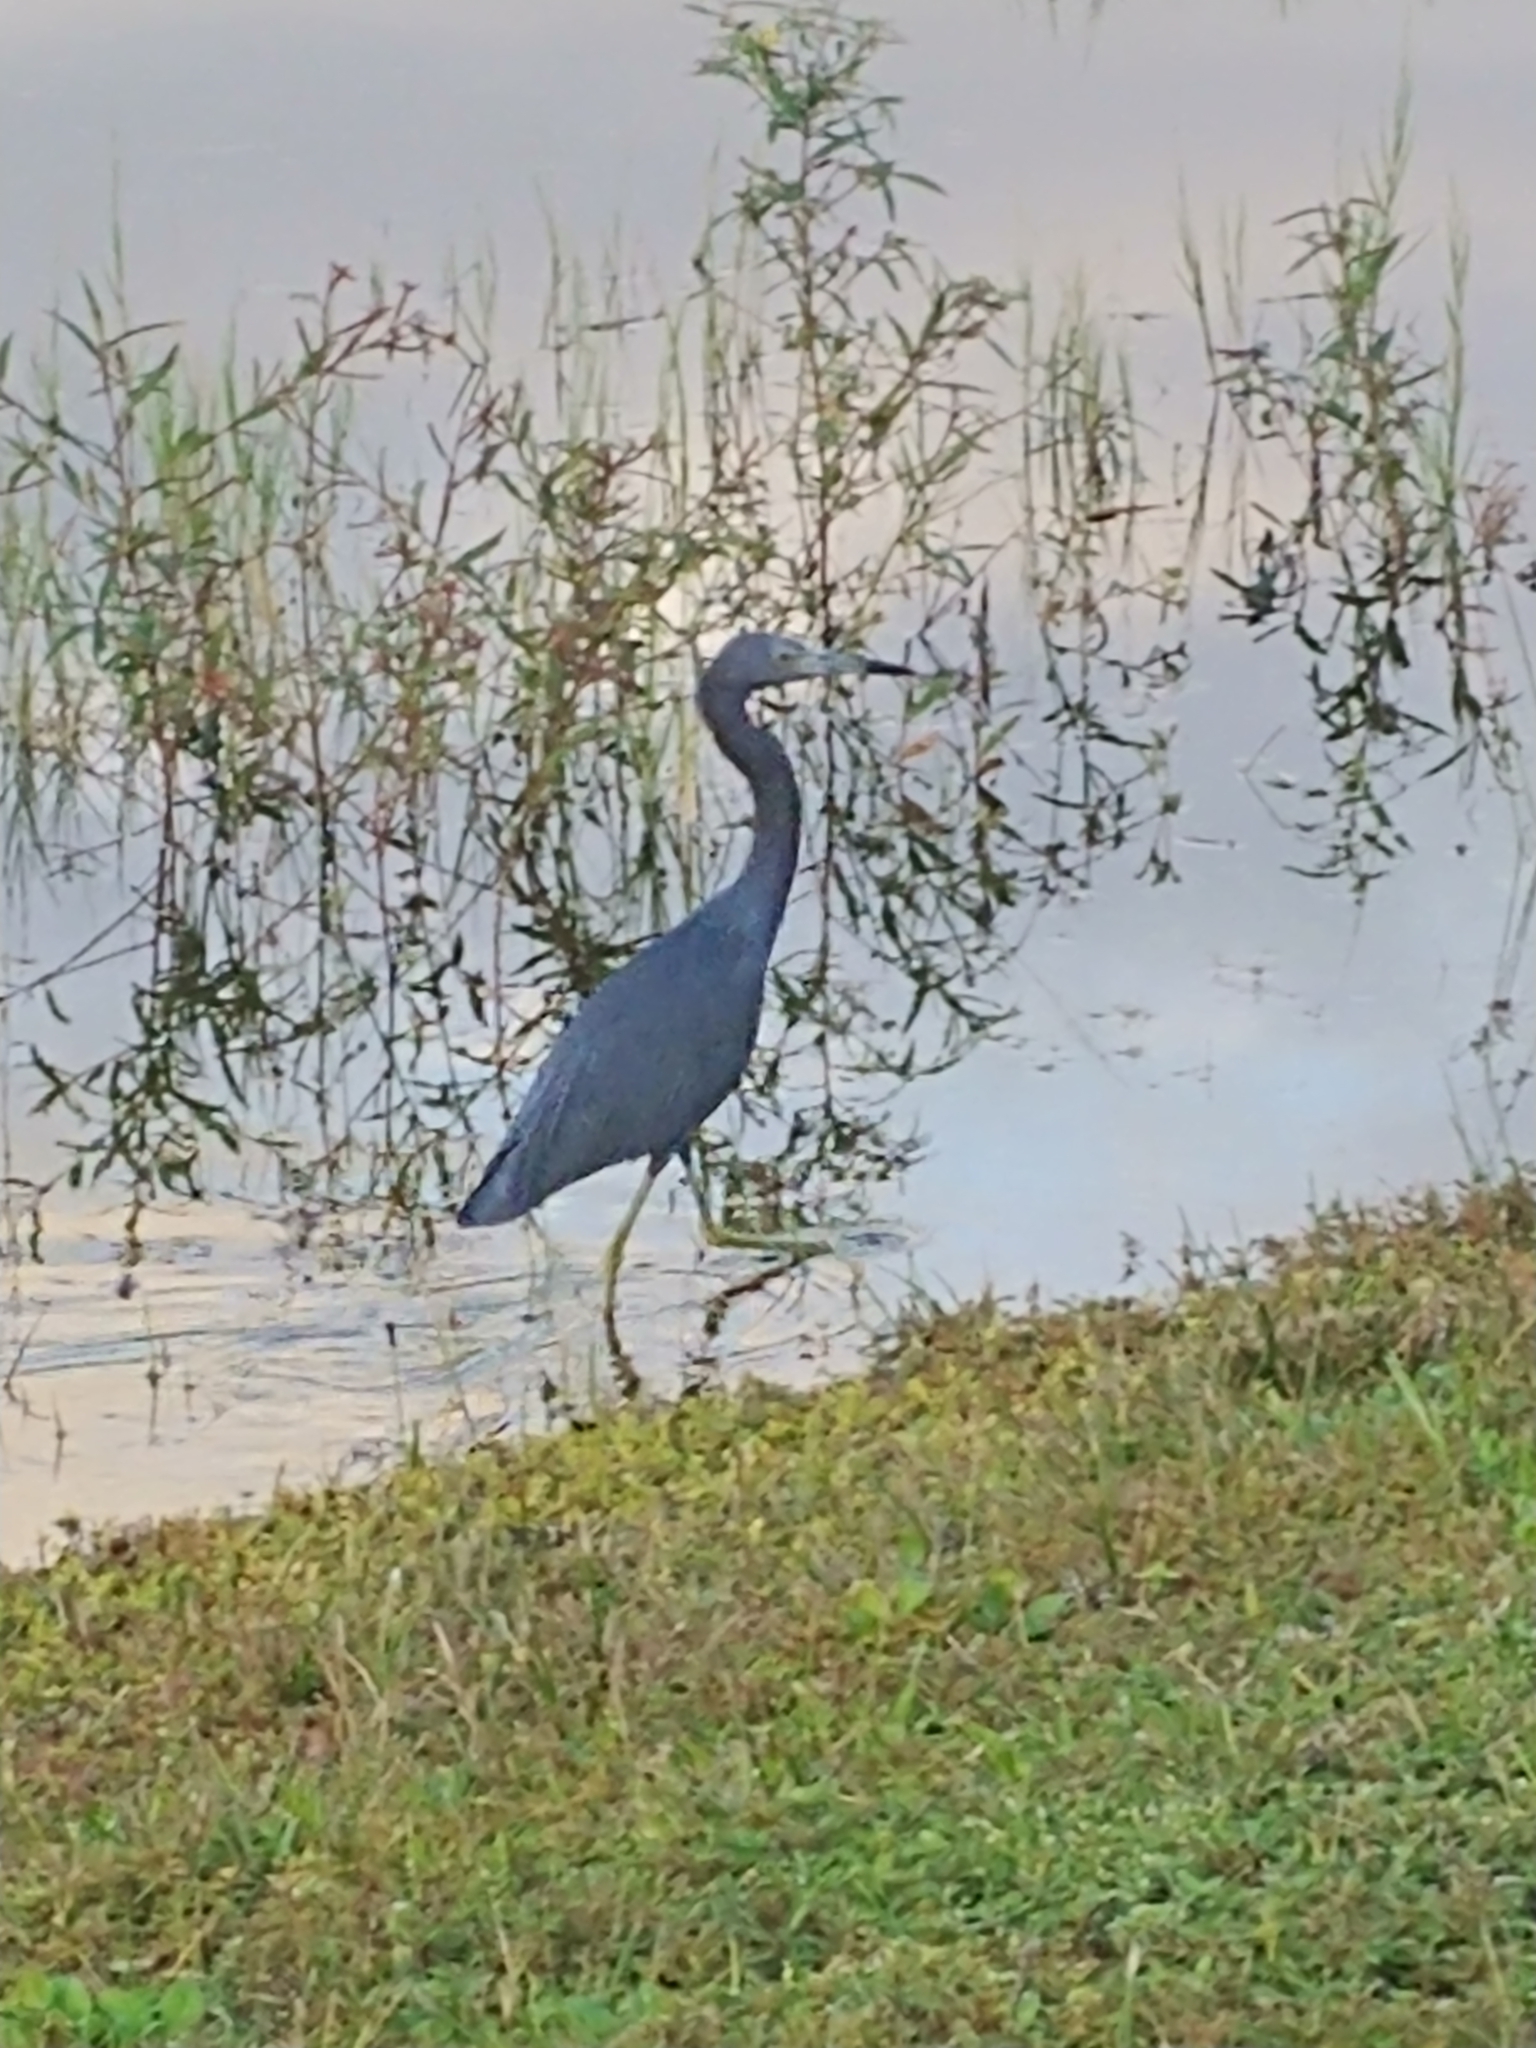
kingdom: Animalia
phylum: Chordata
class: Aves
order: Pelecaniformes
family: Ardeidae
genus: Egretta
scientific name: Egretta caerulea
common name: Little blue heron
